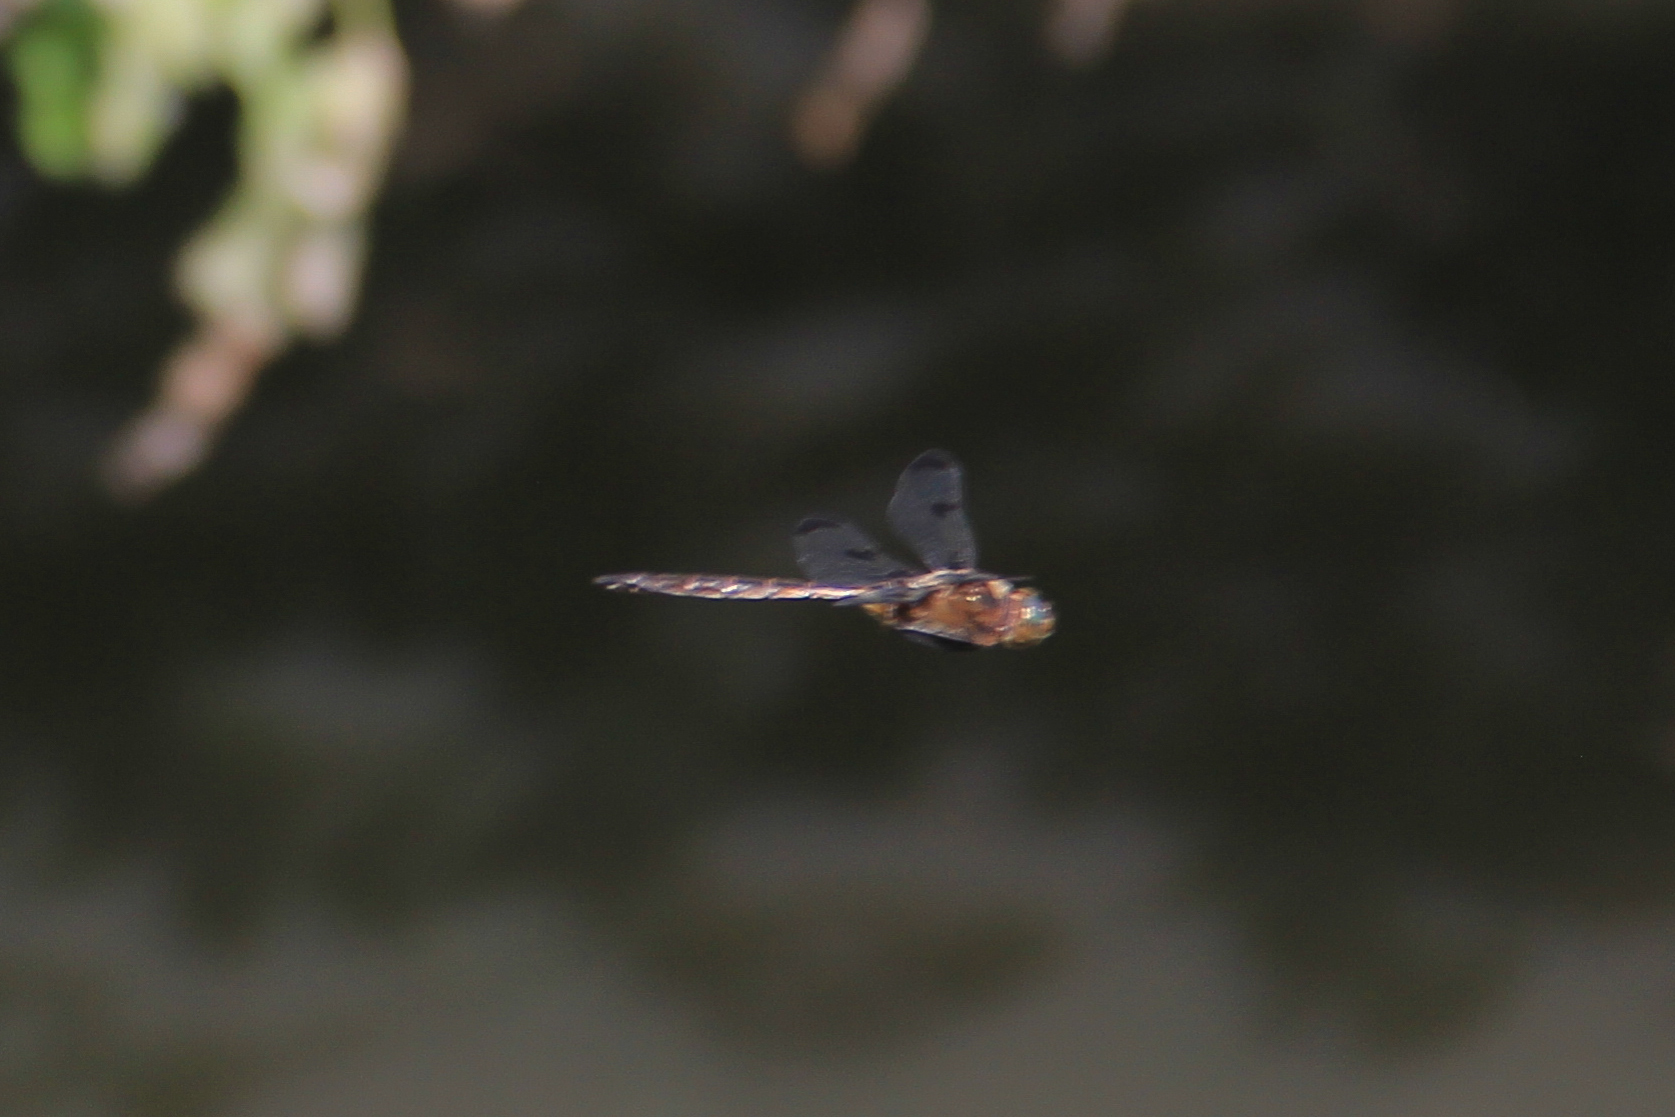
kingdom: Animalia
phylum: Arthropoda
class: Insecta
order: Odonata
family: Corduliidae
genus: Epitheca
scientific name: Epitheca princeps
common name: Prince baskettail
